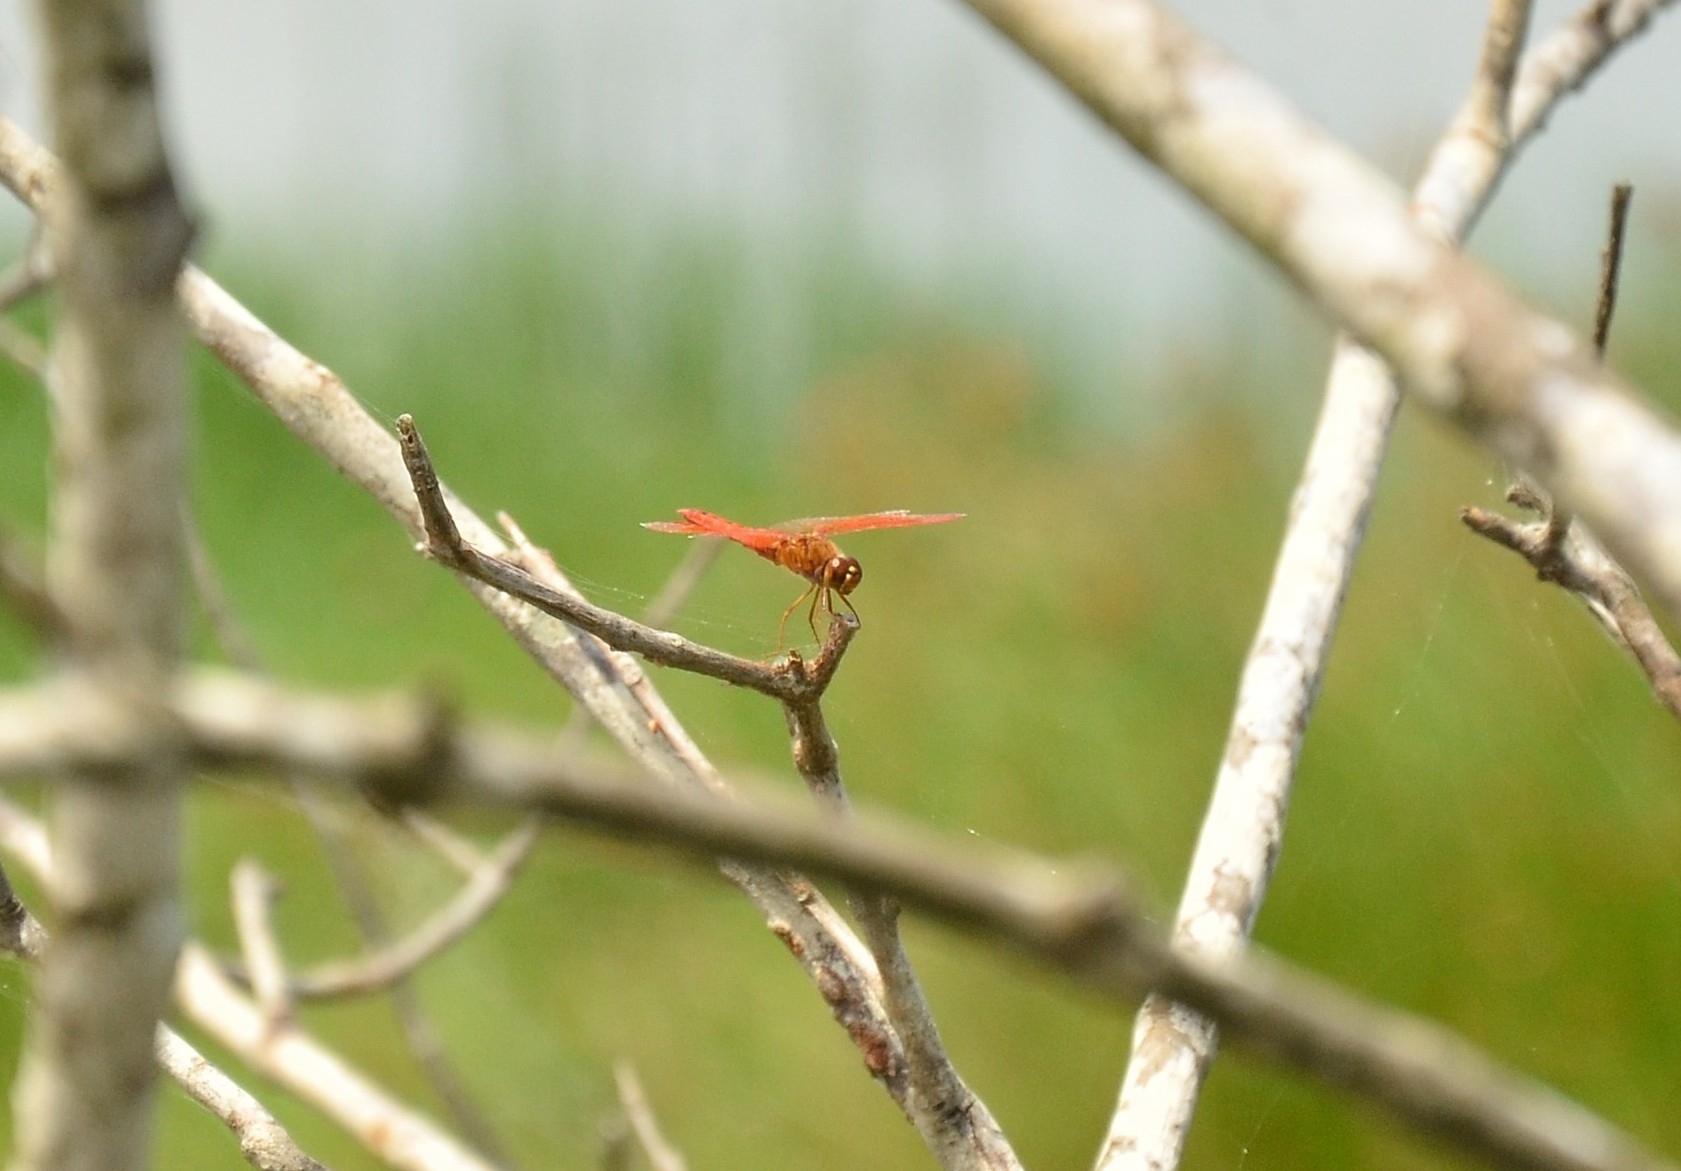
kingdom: Animalia
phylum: Arthropoda
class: Insecta
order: Odonata
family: Libellulidae
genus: Brachythemis
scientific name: Brachythemis contaminata
